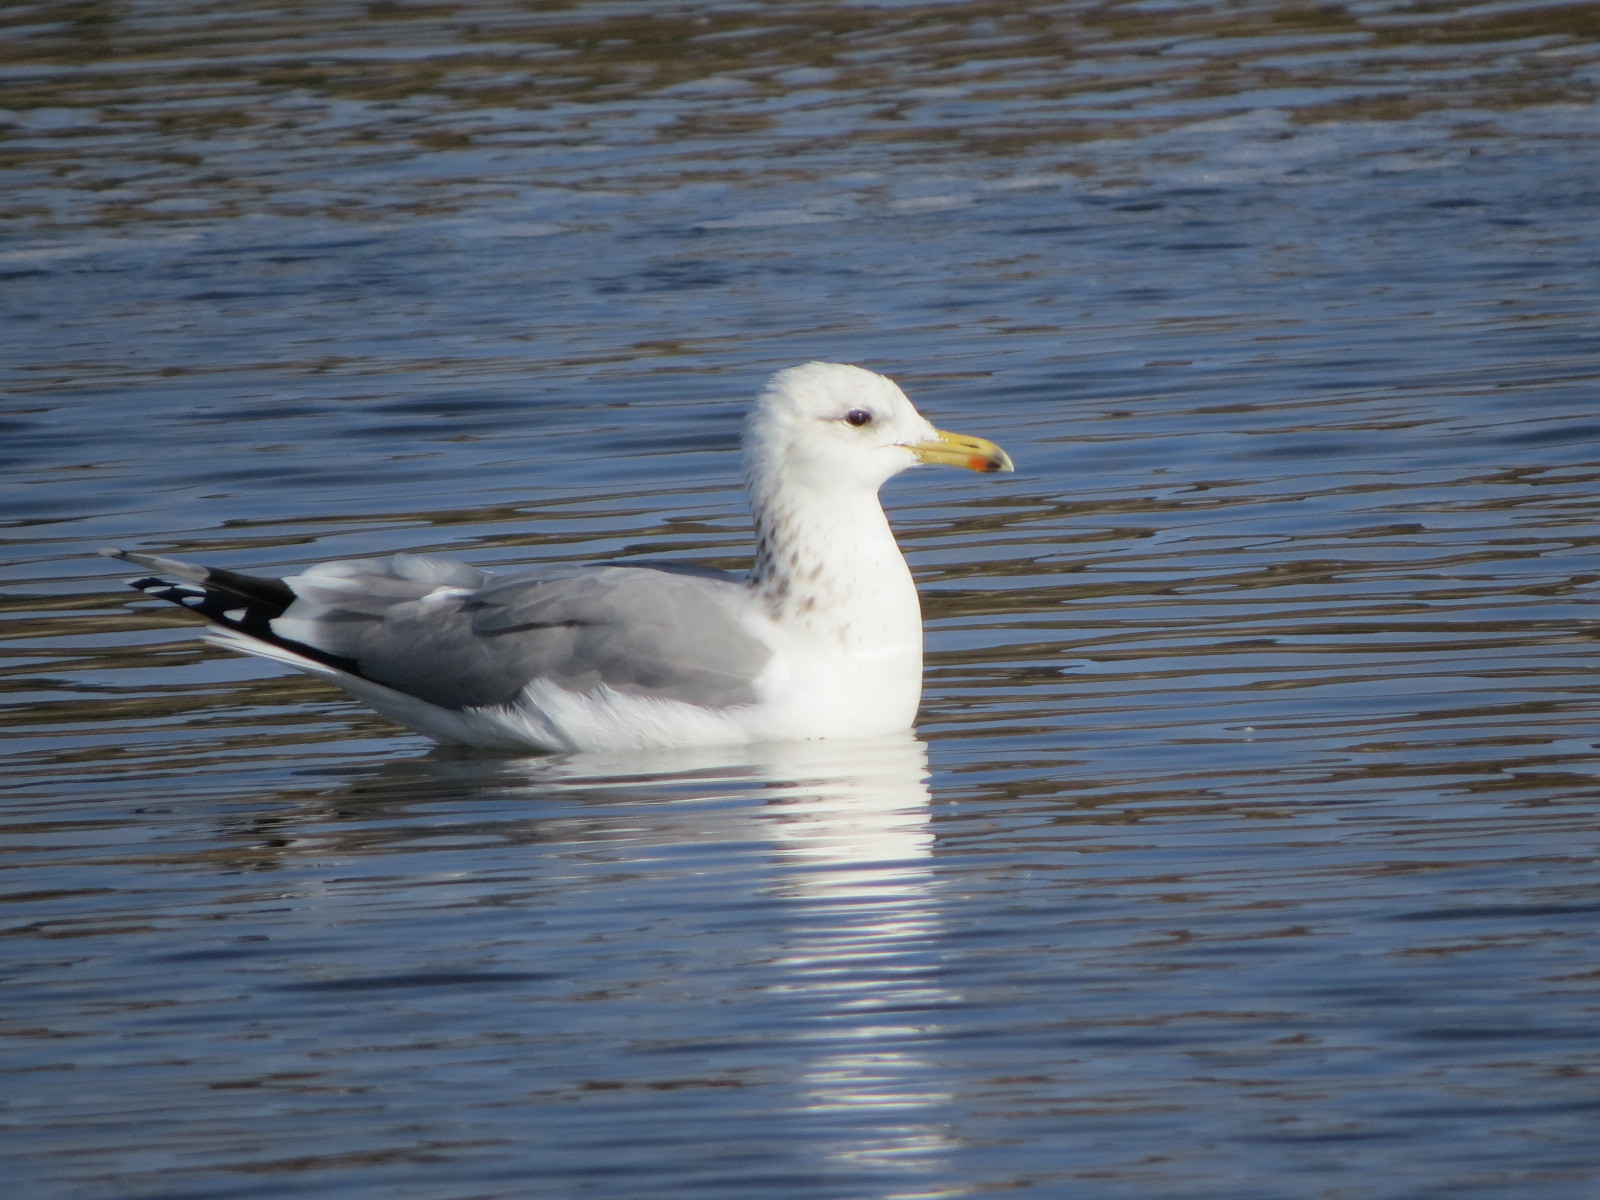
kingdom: Animalia
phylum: Chordata
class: Aves
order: Charadriiformes
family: Laridae
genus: Larus
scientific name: Larus californicus
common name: California gull
